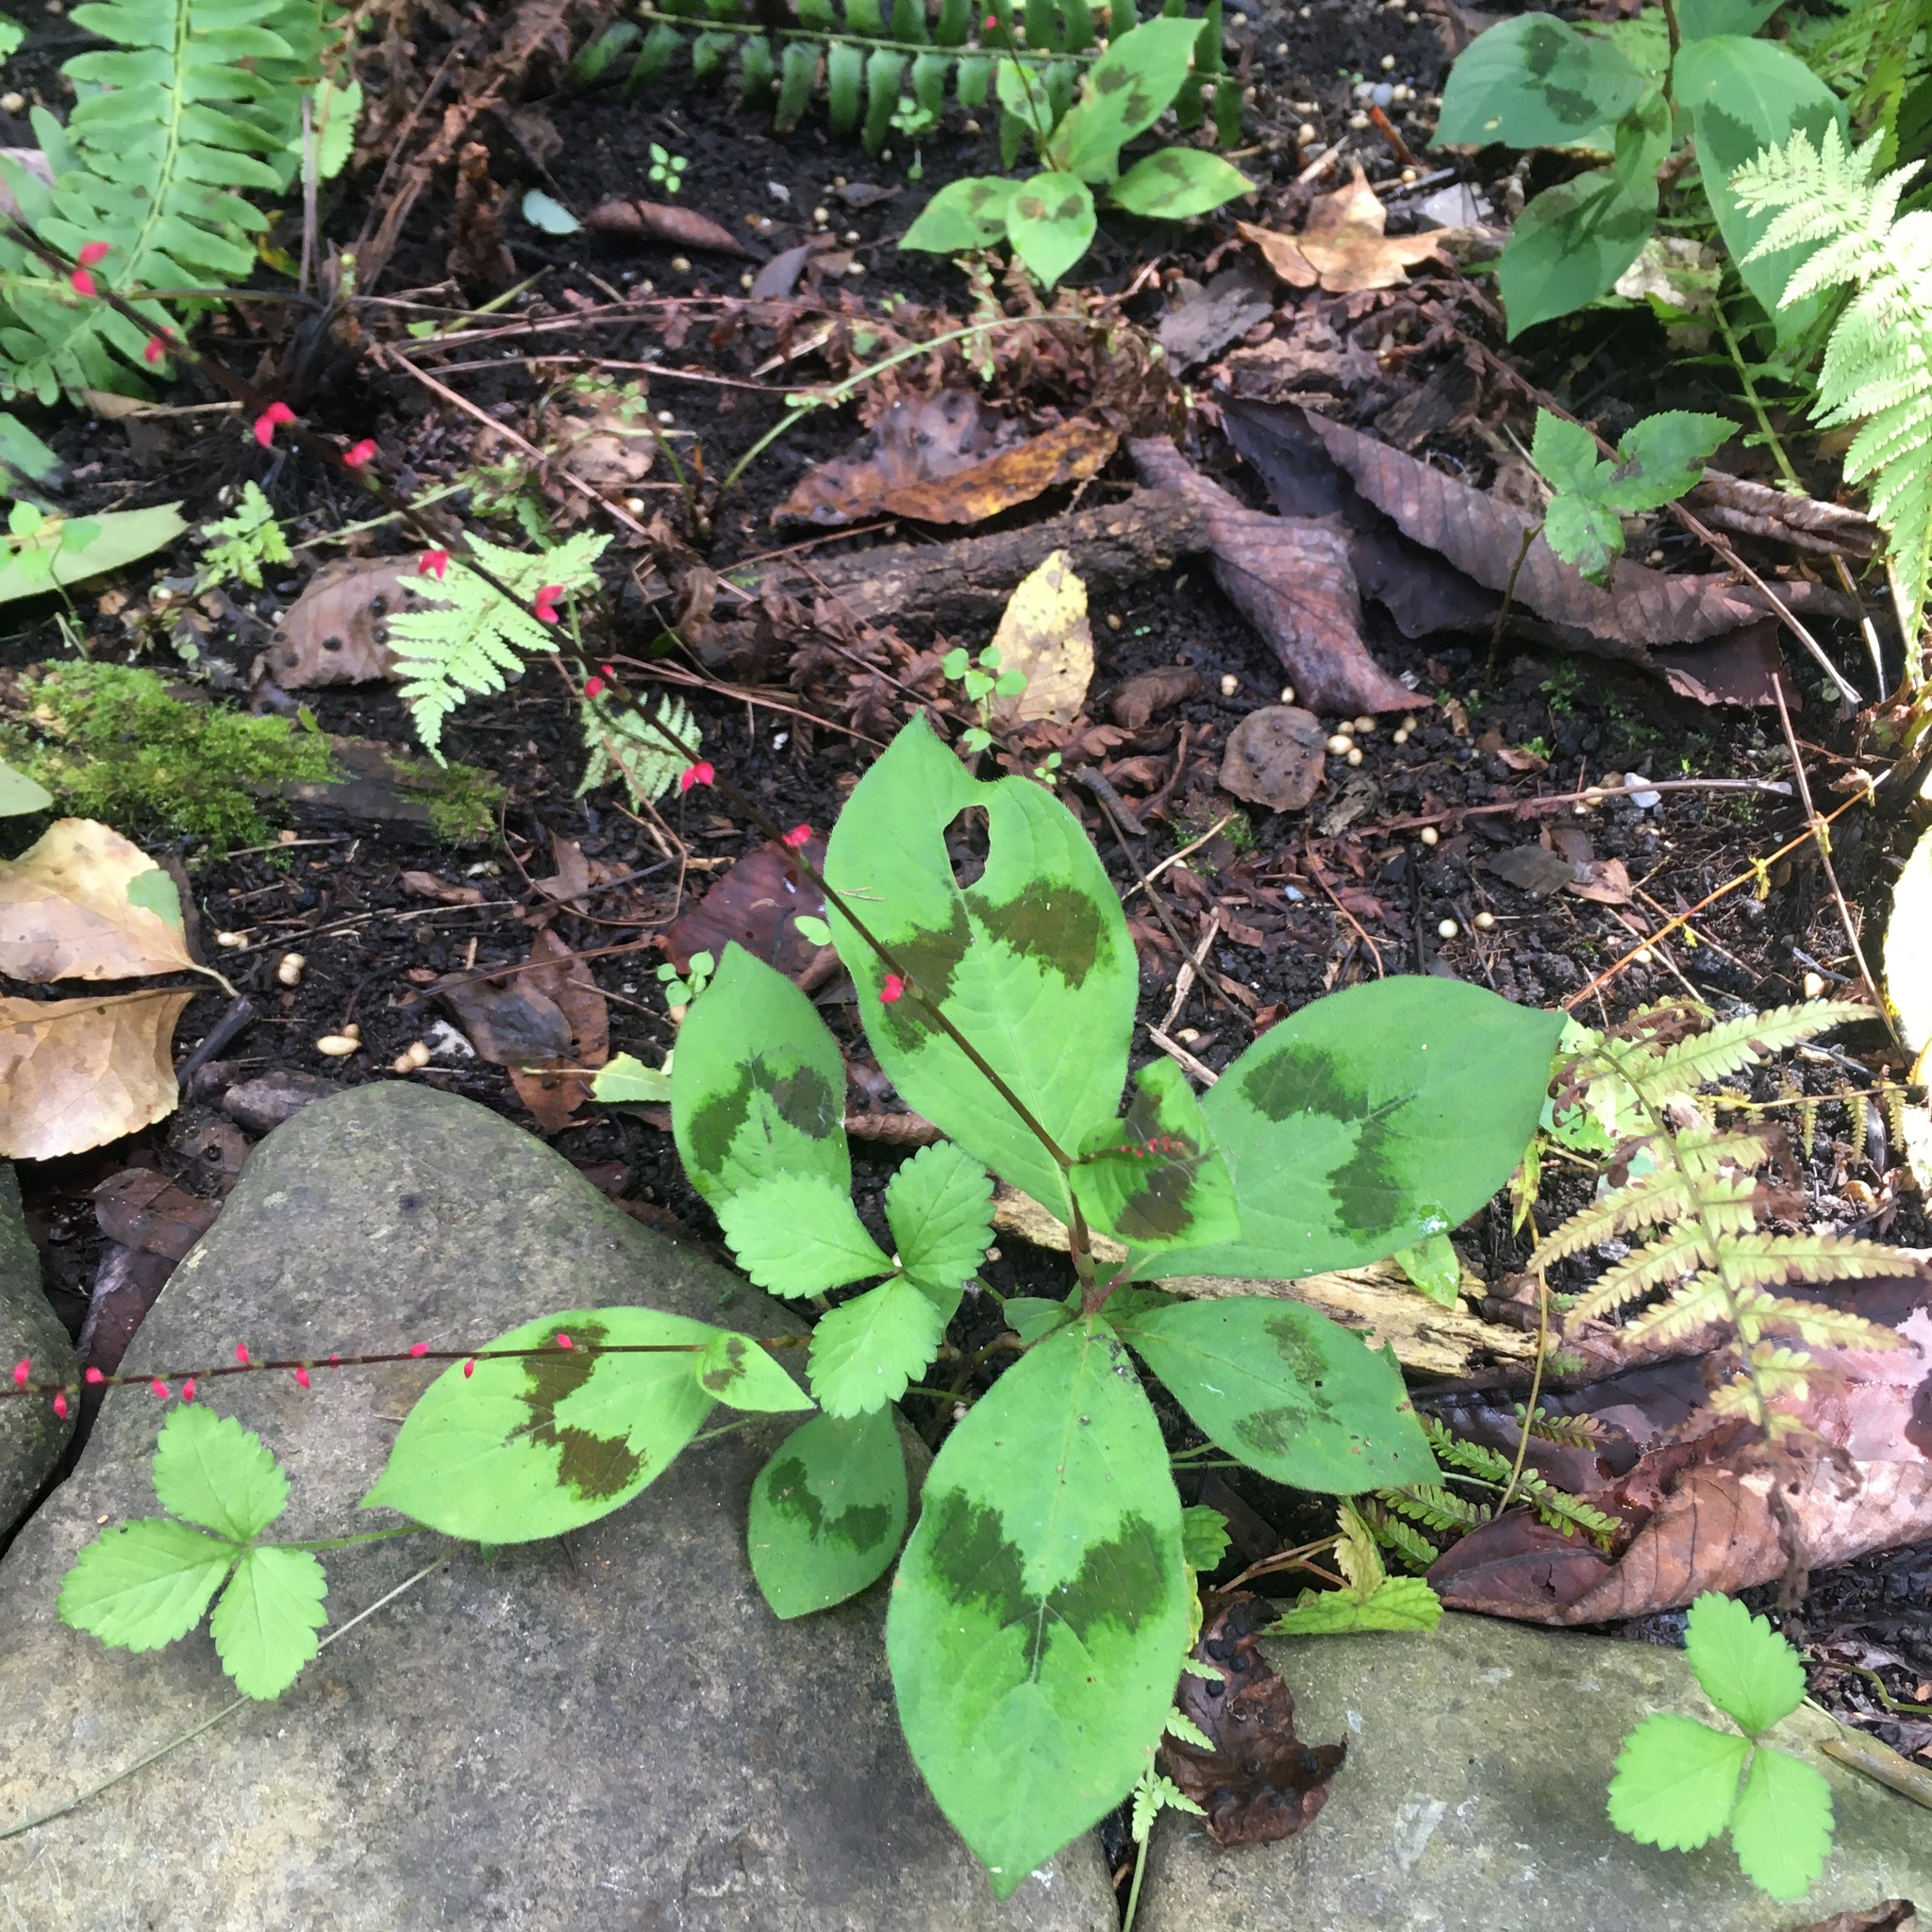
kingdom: Plantae
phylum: Tracheophyta
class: Magnoliopsida
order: Caryophyllales
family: Polygonaceae
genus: Persicaria
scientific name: Persicaria filiformis
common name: Asian jumpseed
